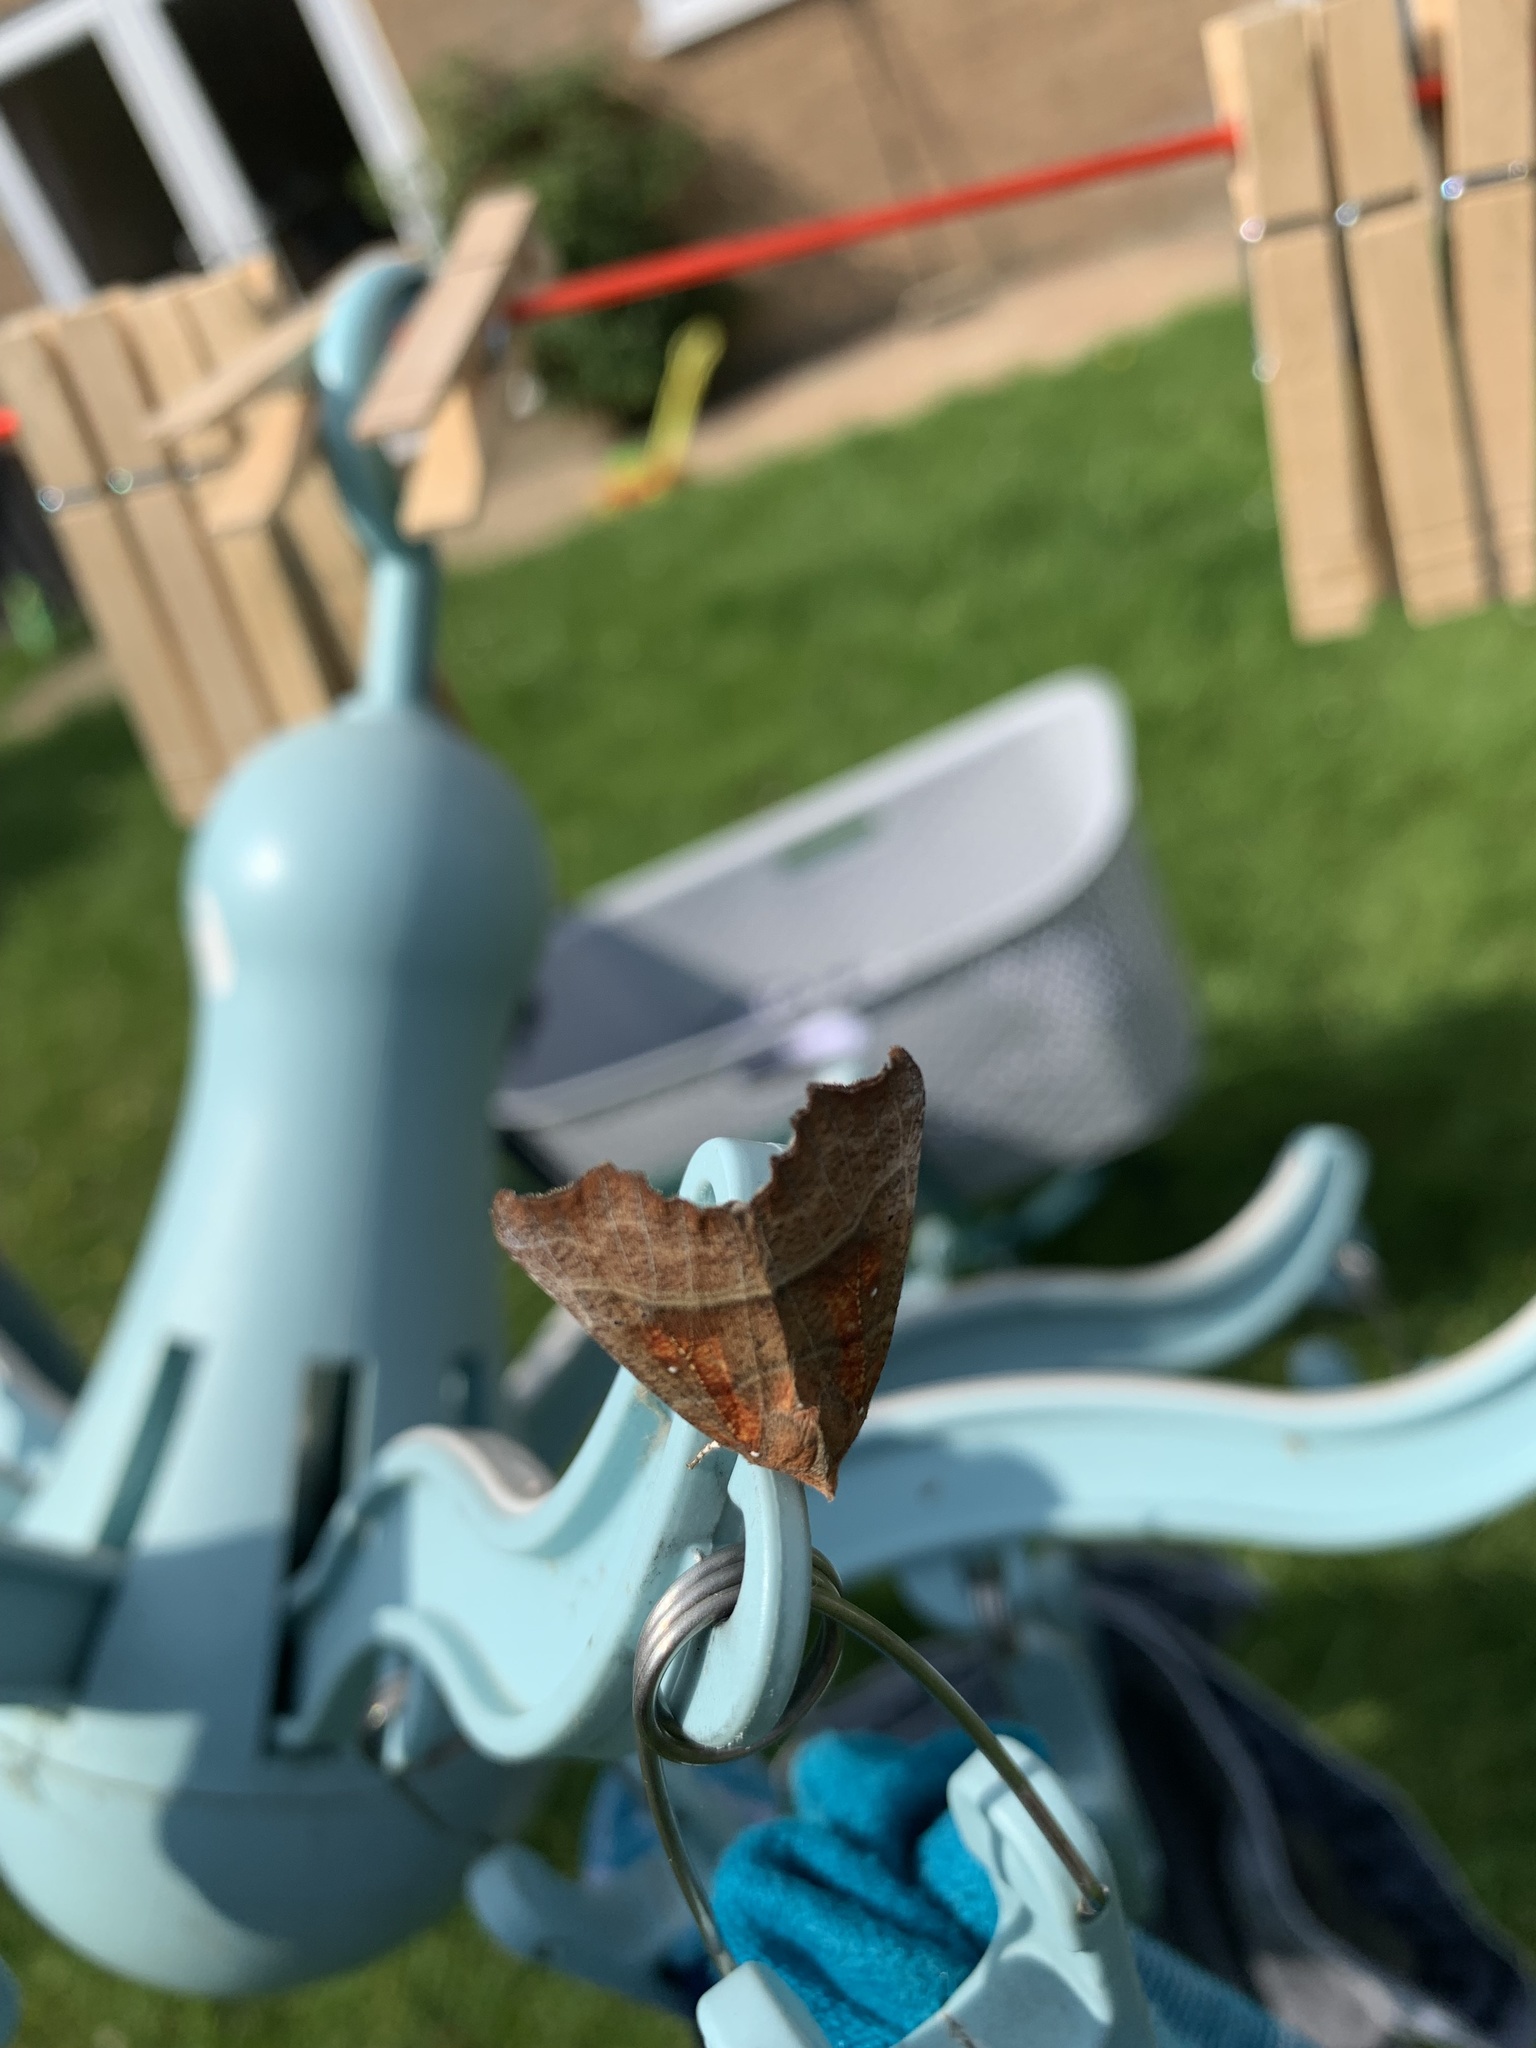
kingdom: Animalia
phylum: Arthropoda
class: Insecta
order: Lepidoptera
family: Erebidae
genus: Scoliopteryx
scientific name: Scoliopteryx libatrix
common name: Herald
